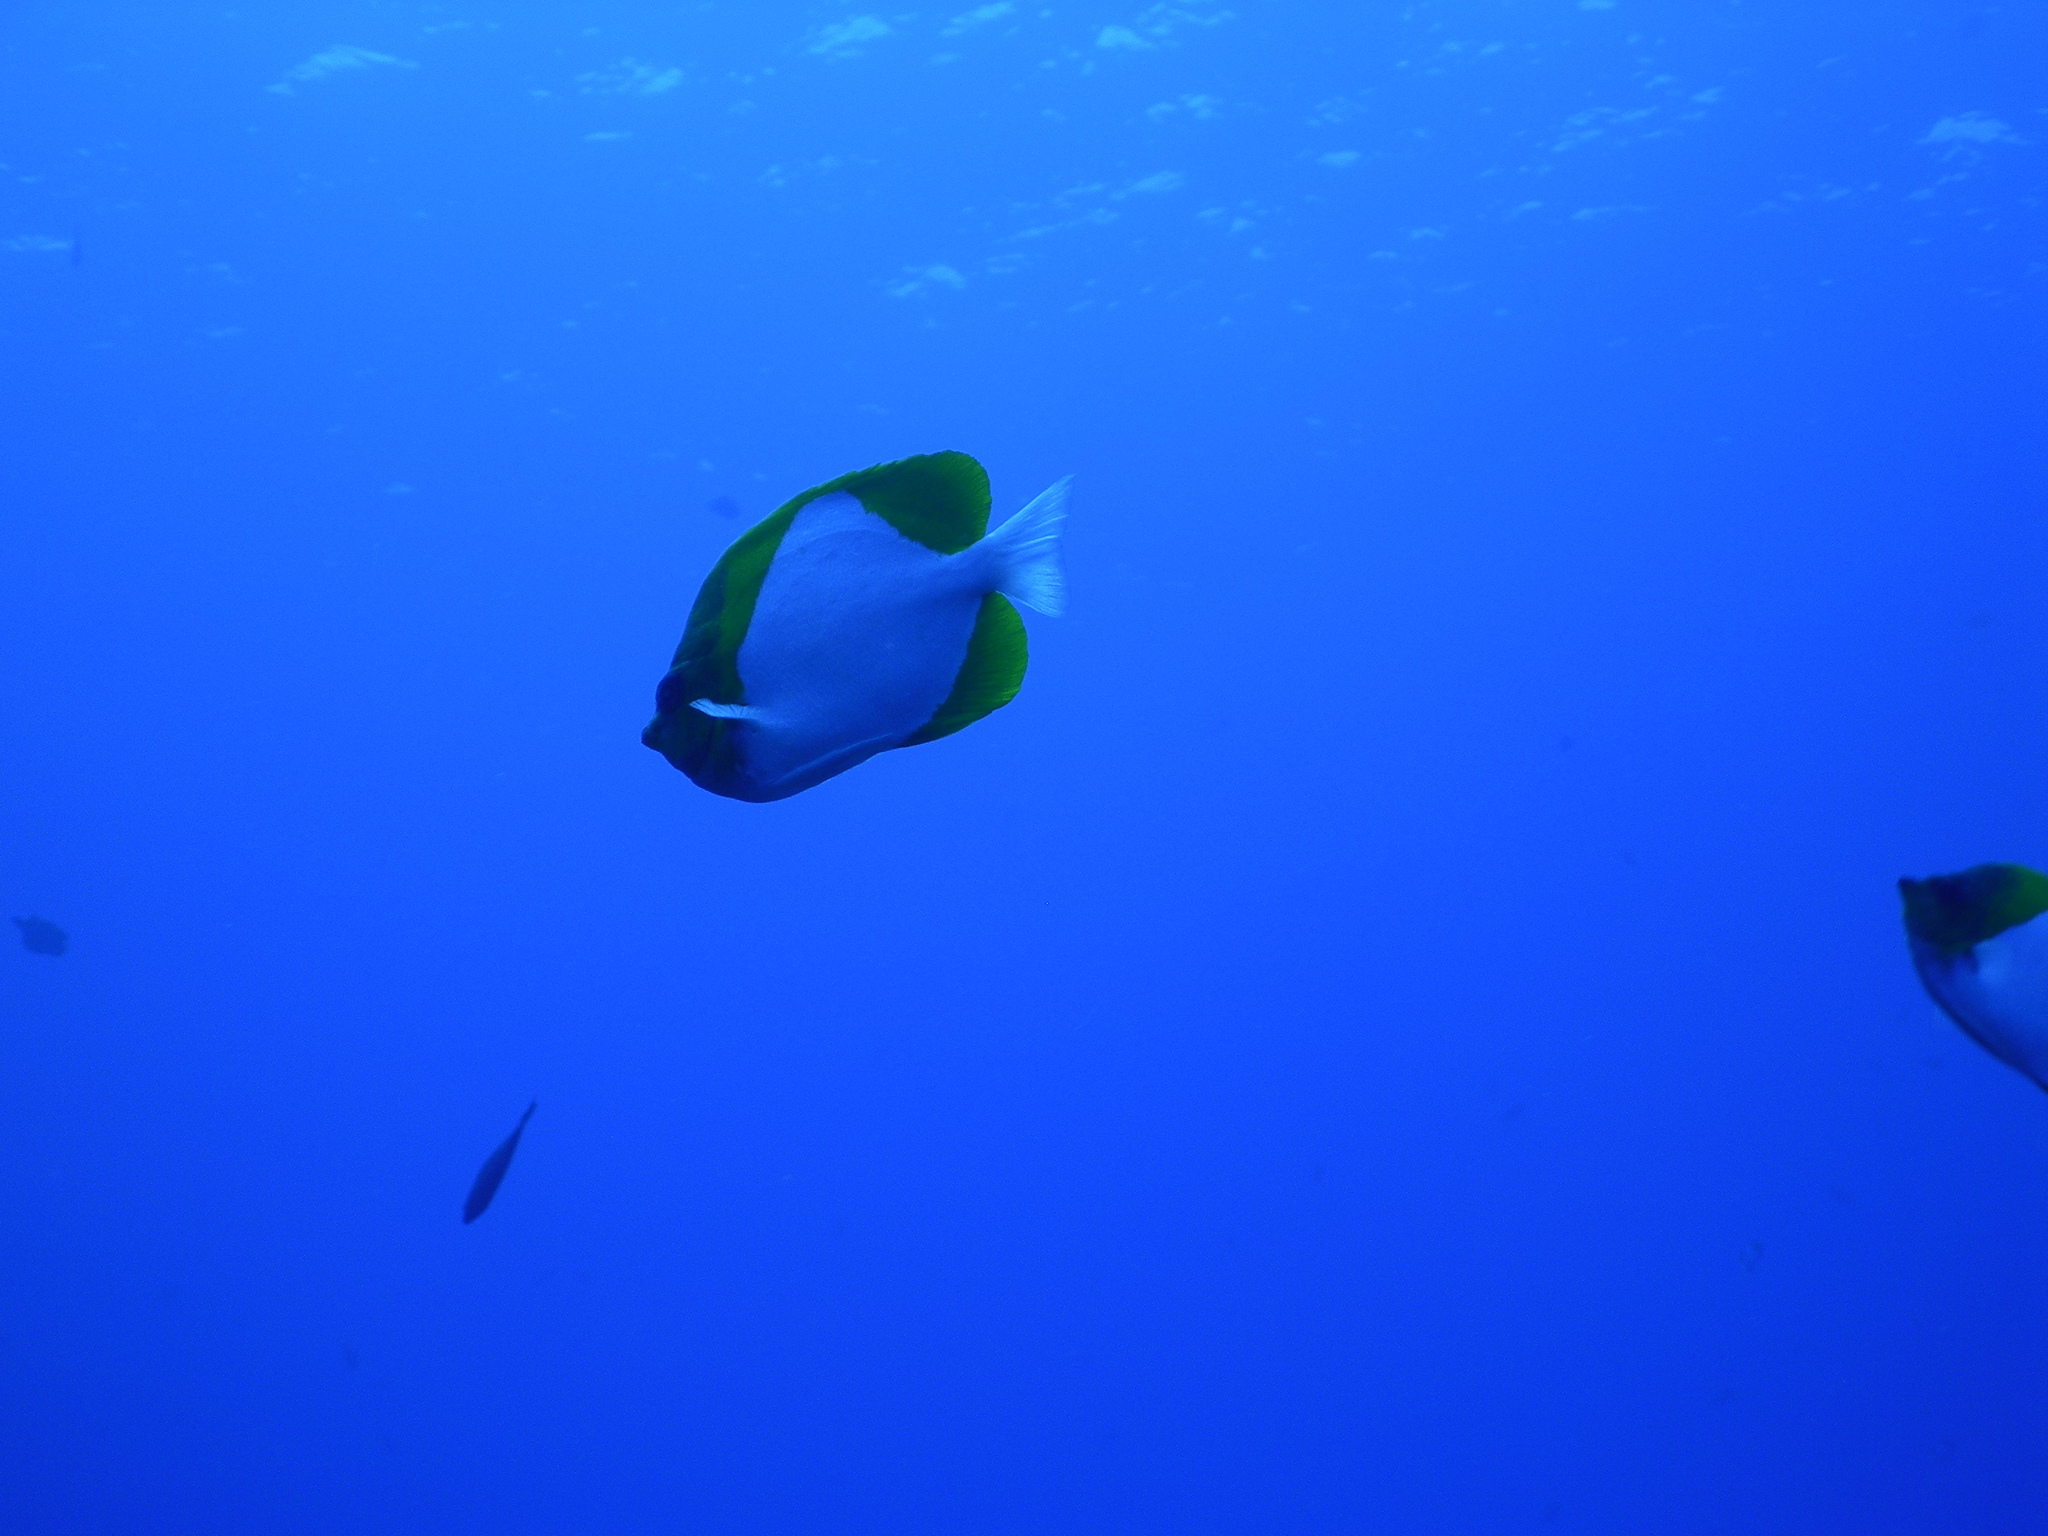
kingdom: Animalia
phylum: Chordata
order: Perciformes
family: Chaetodontidae
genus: Hemitaurichthys
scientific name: Hemitaurichthys polylepis
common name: Brushytoothed butterflyfish
